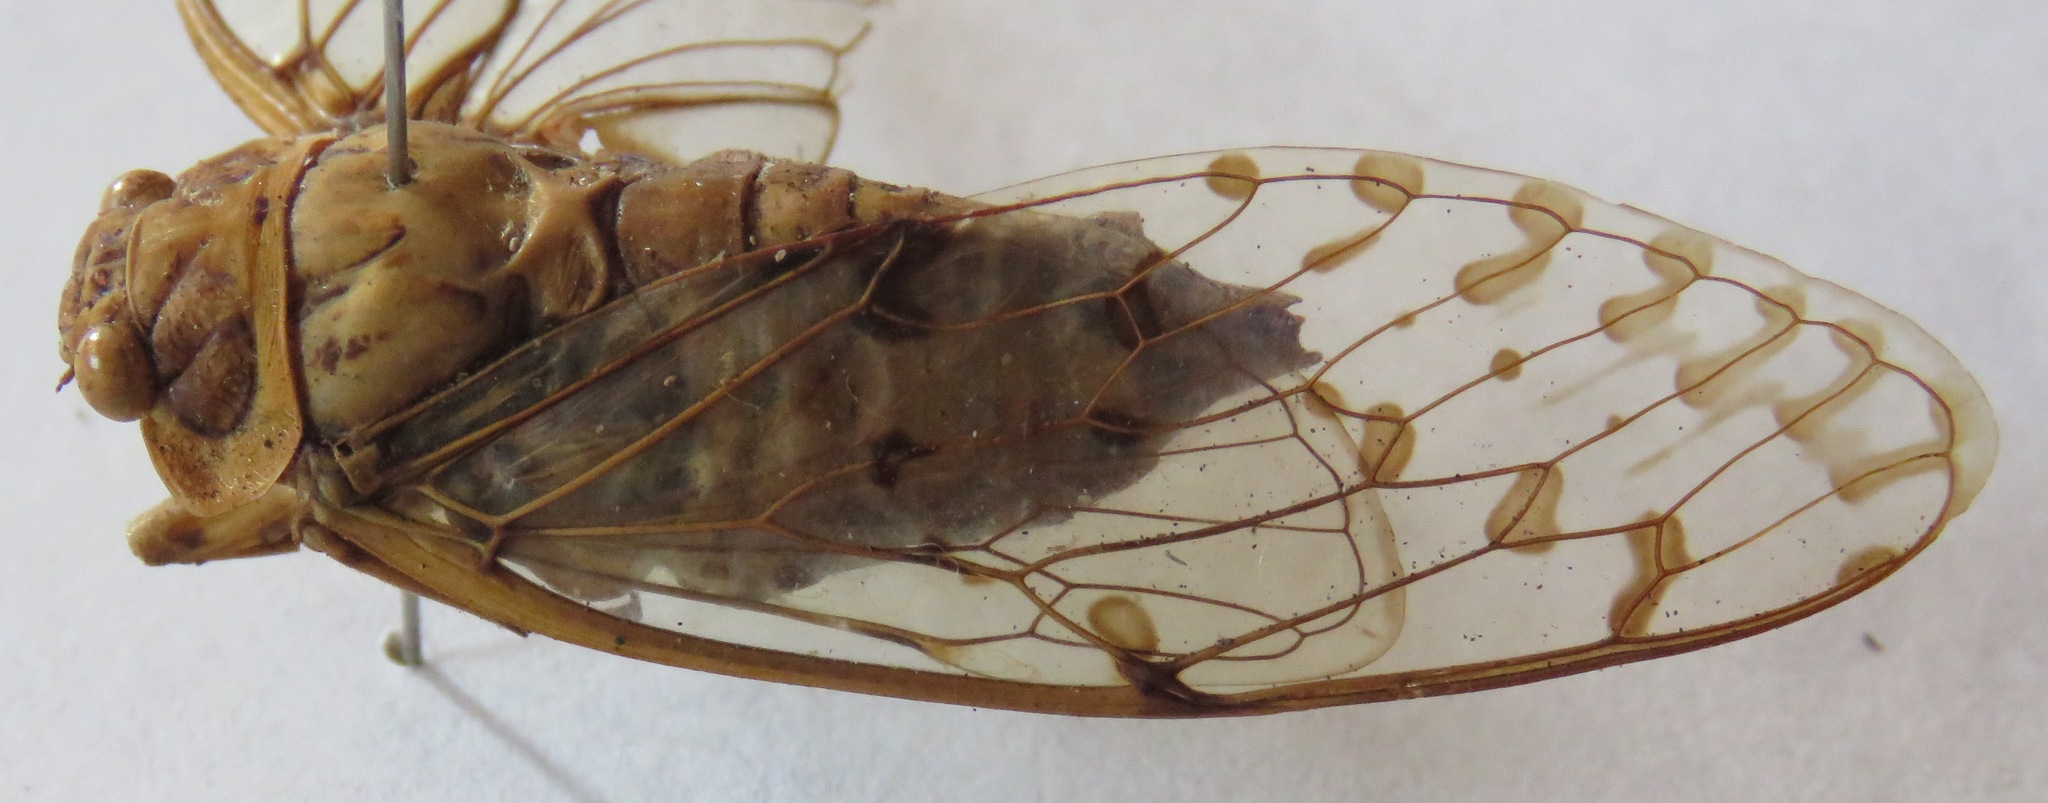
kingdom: Animalia
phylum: Arthropoda
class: Insecta
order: Hemiptera
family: Cicadidae
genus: Procollina
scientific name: Procollina nicaraguaensis
